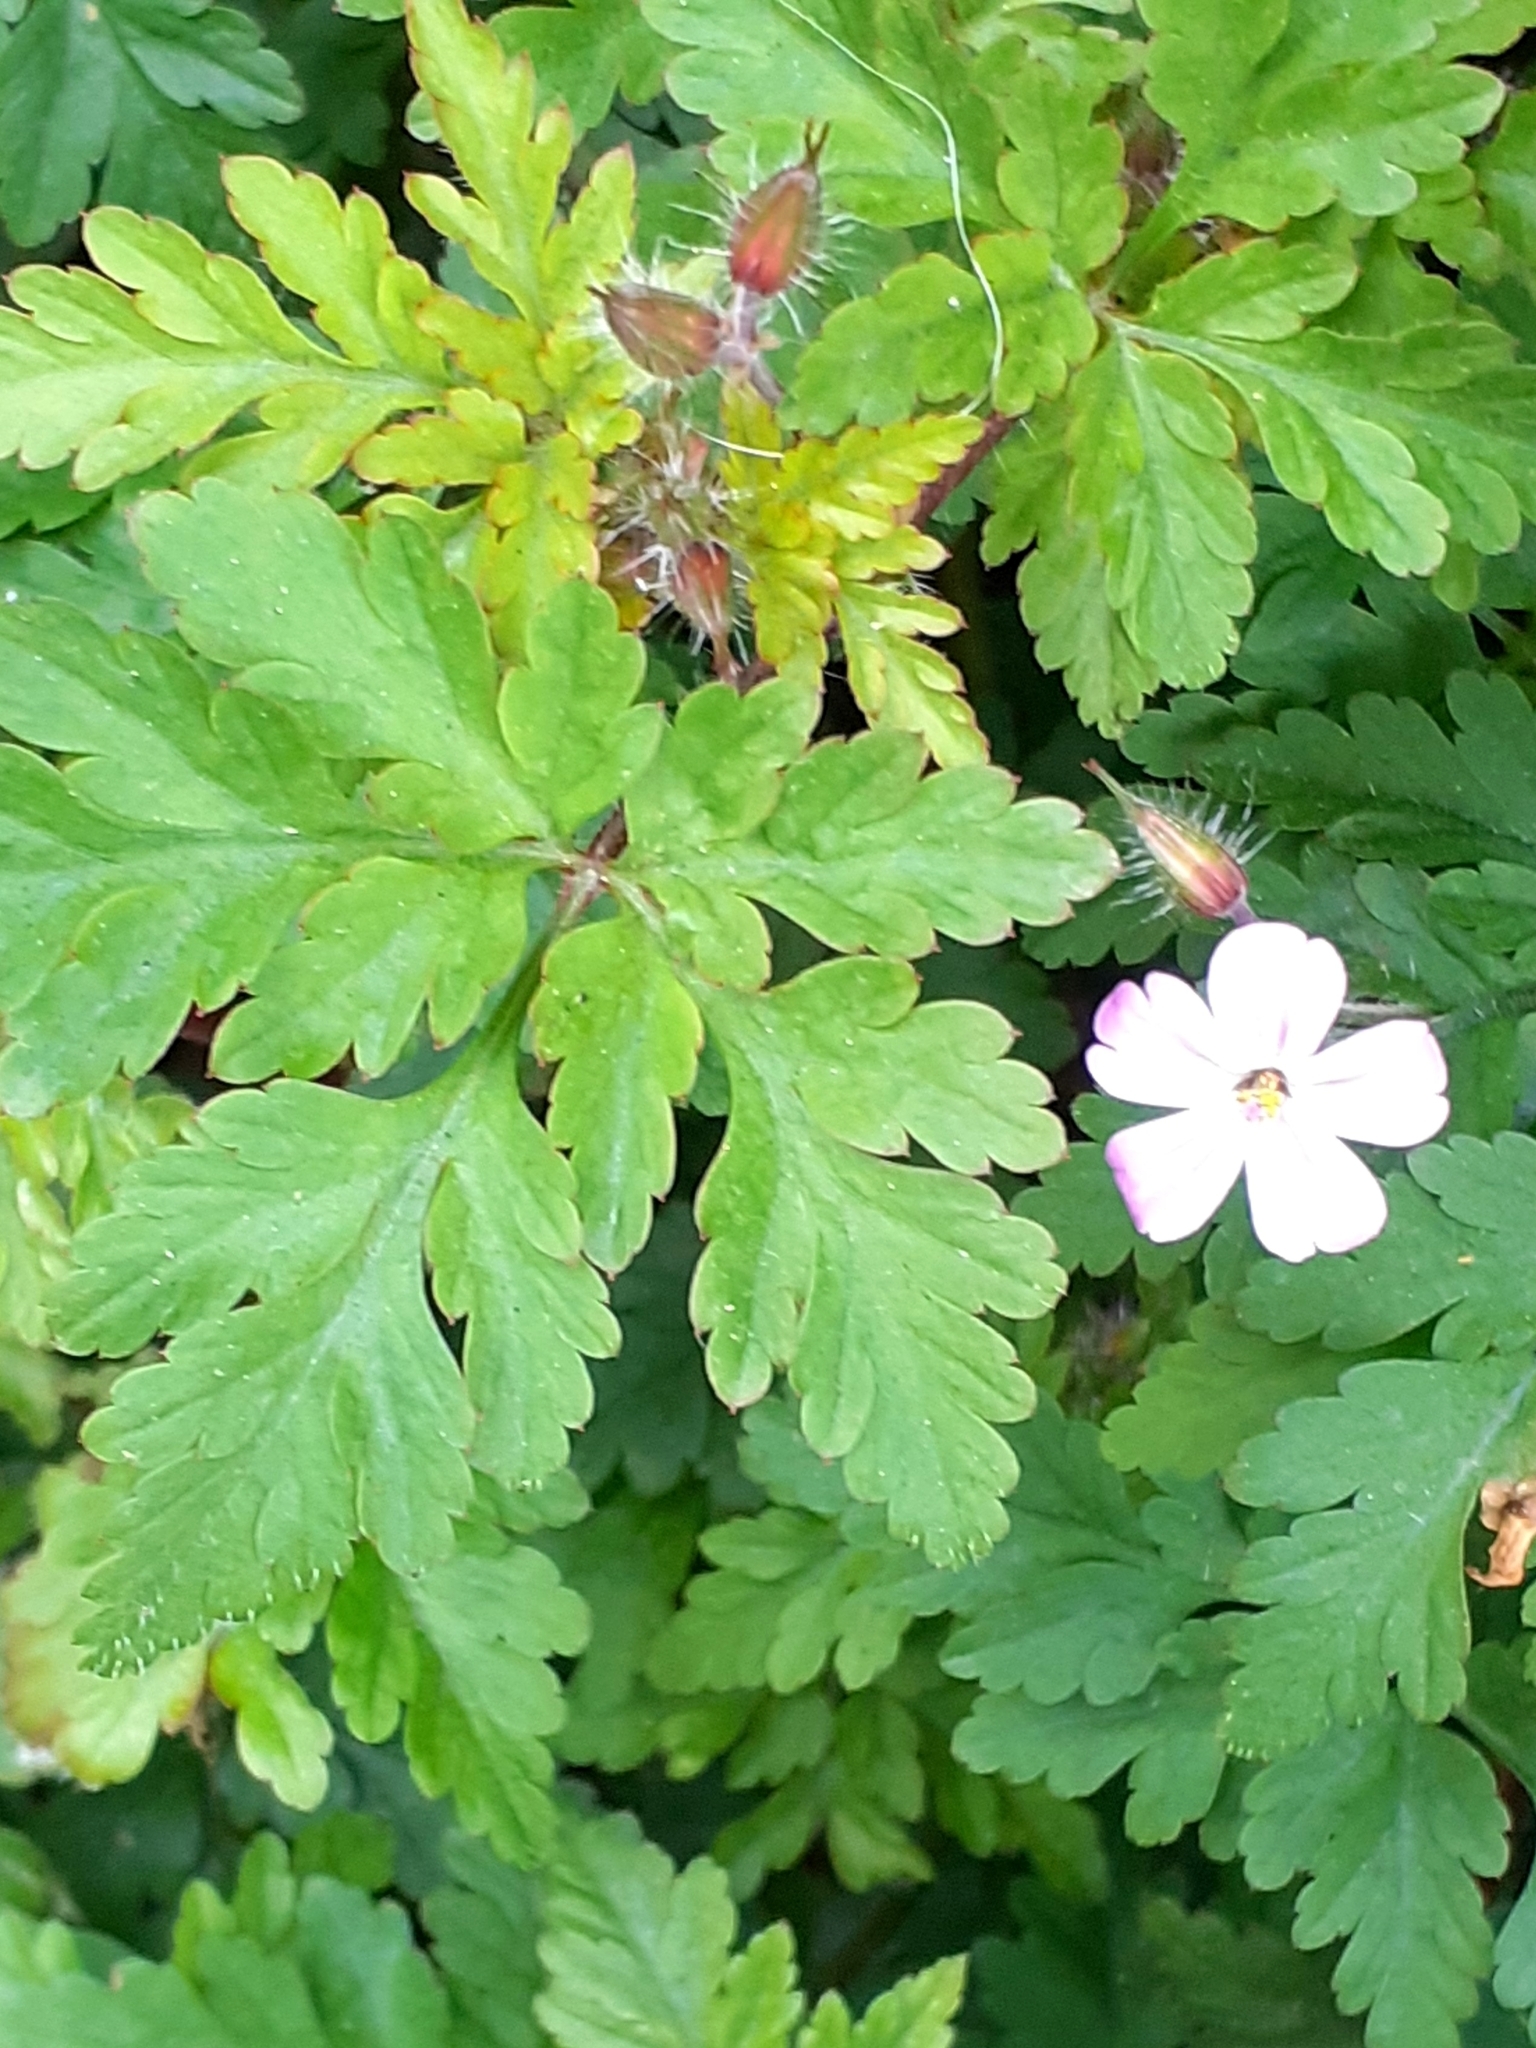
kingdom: Plantae
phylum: Tracheophyta
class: Magnoliopsida
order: Geraniales
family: Geraniaceae
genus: Geranium
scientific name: Geranium robertianum
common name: Herb-robert
